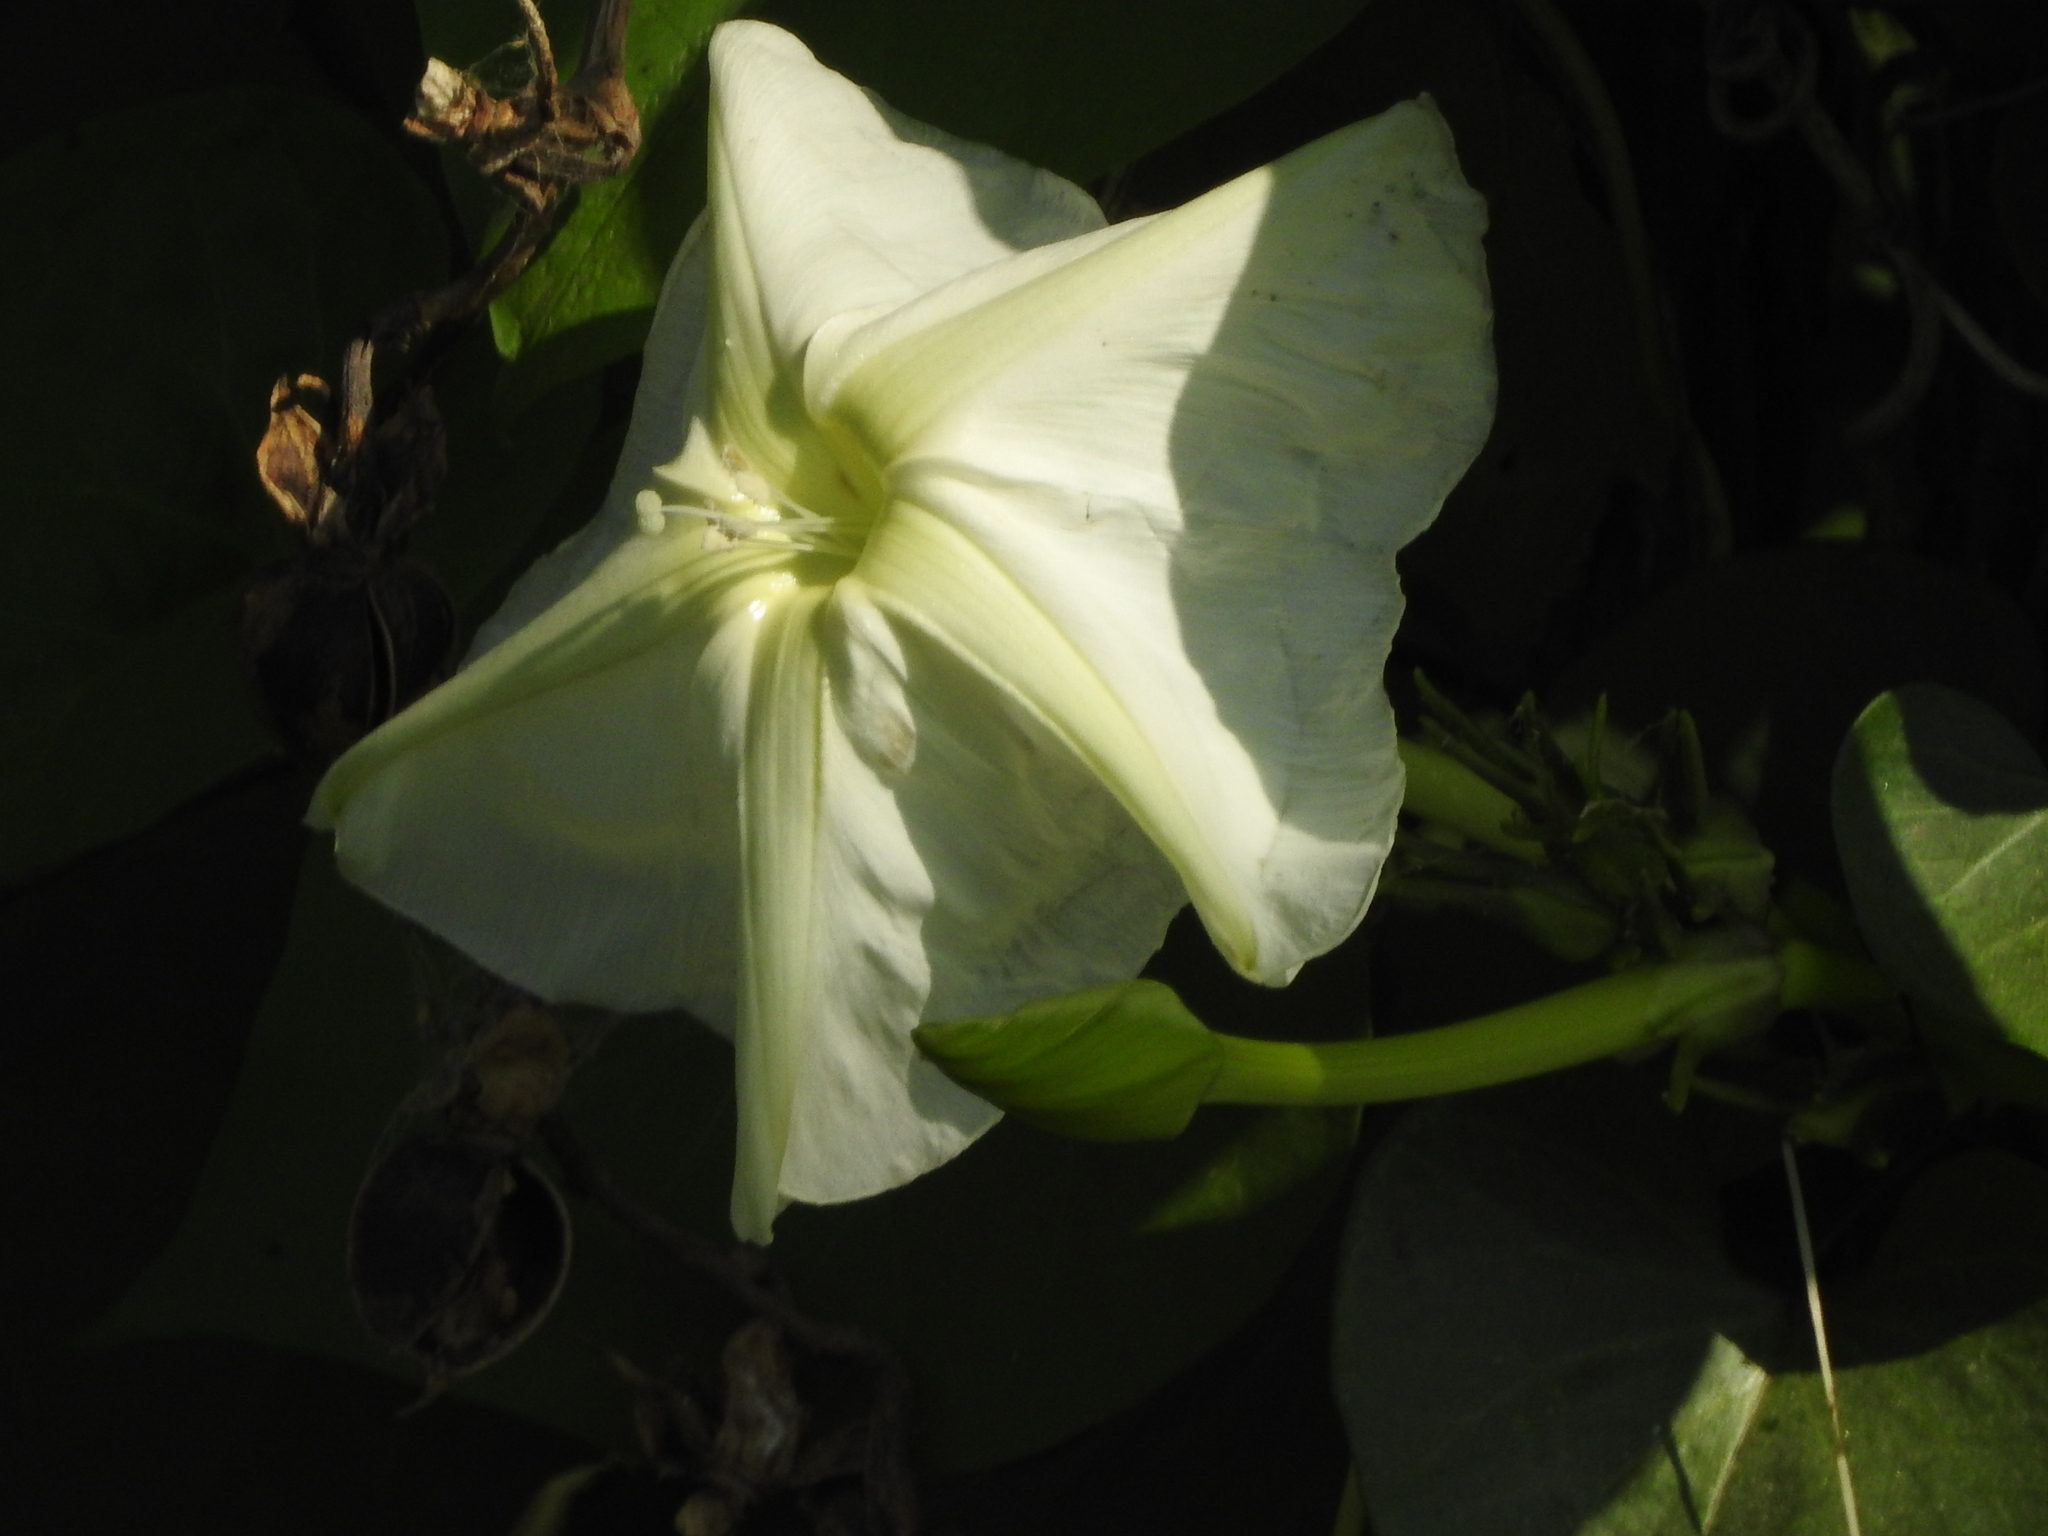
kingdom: Plantae
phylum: Tracheophyta
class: Magnoliopsida
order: Solanales
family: Convolvulaceae
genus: Ipomoea
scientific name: Ipomoea alba
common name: Moonflower
